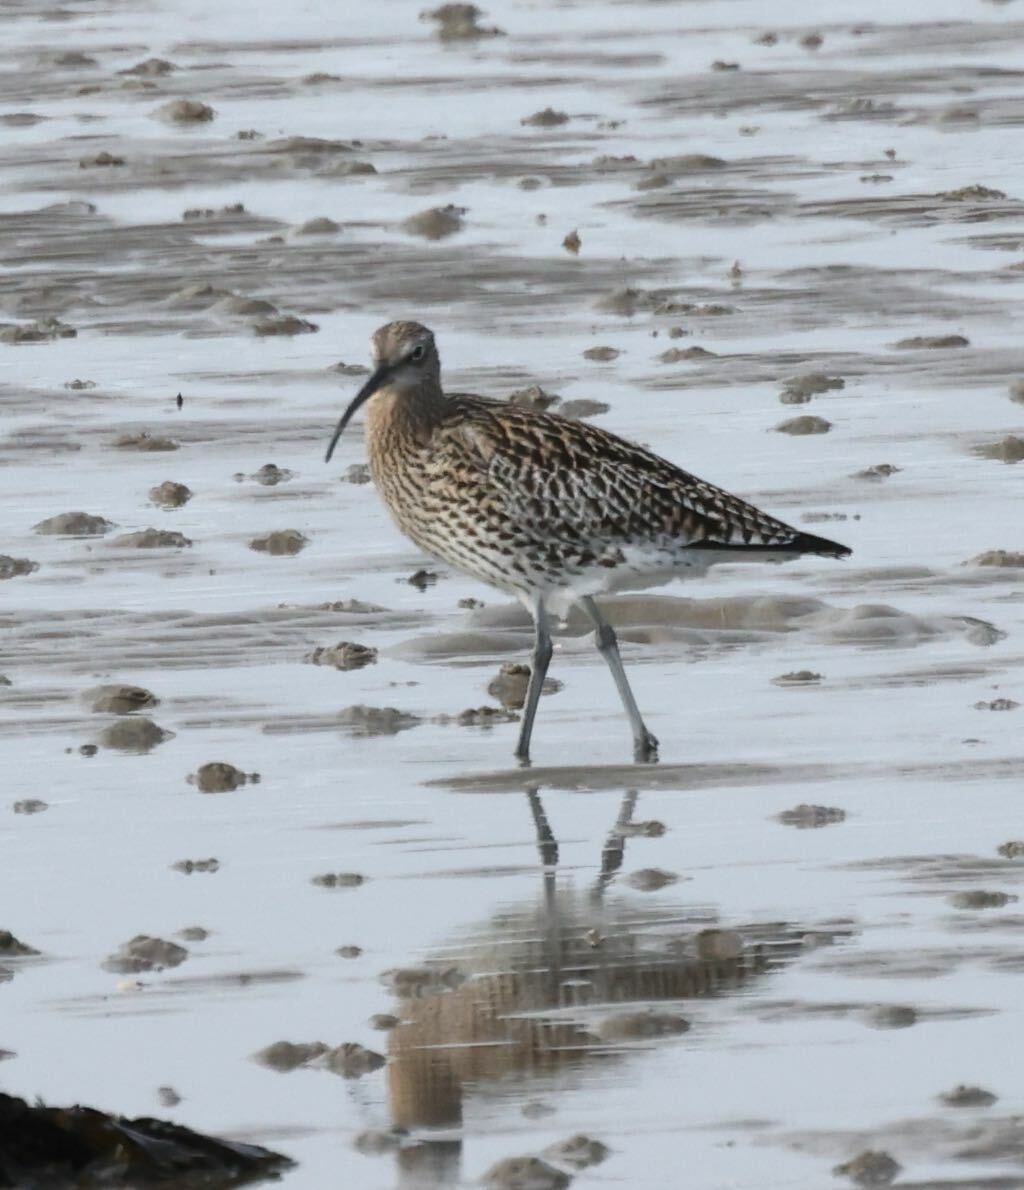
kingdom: Animalia
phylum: Chordata
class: Aves
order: Charadriiformes
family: Scolopacidae
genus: Numenius
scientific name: Numenius arquata
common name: Eurasian curlew
